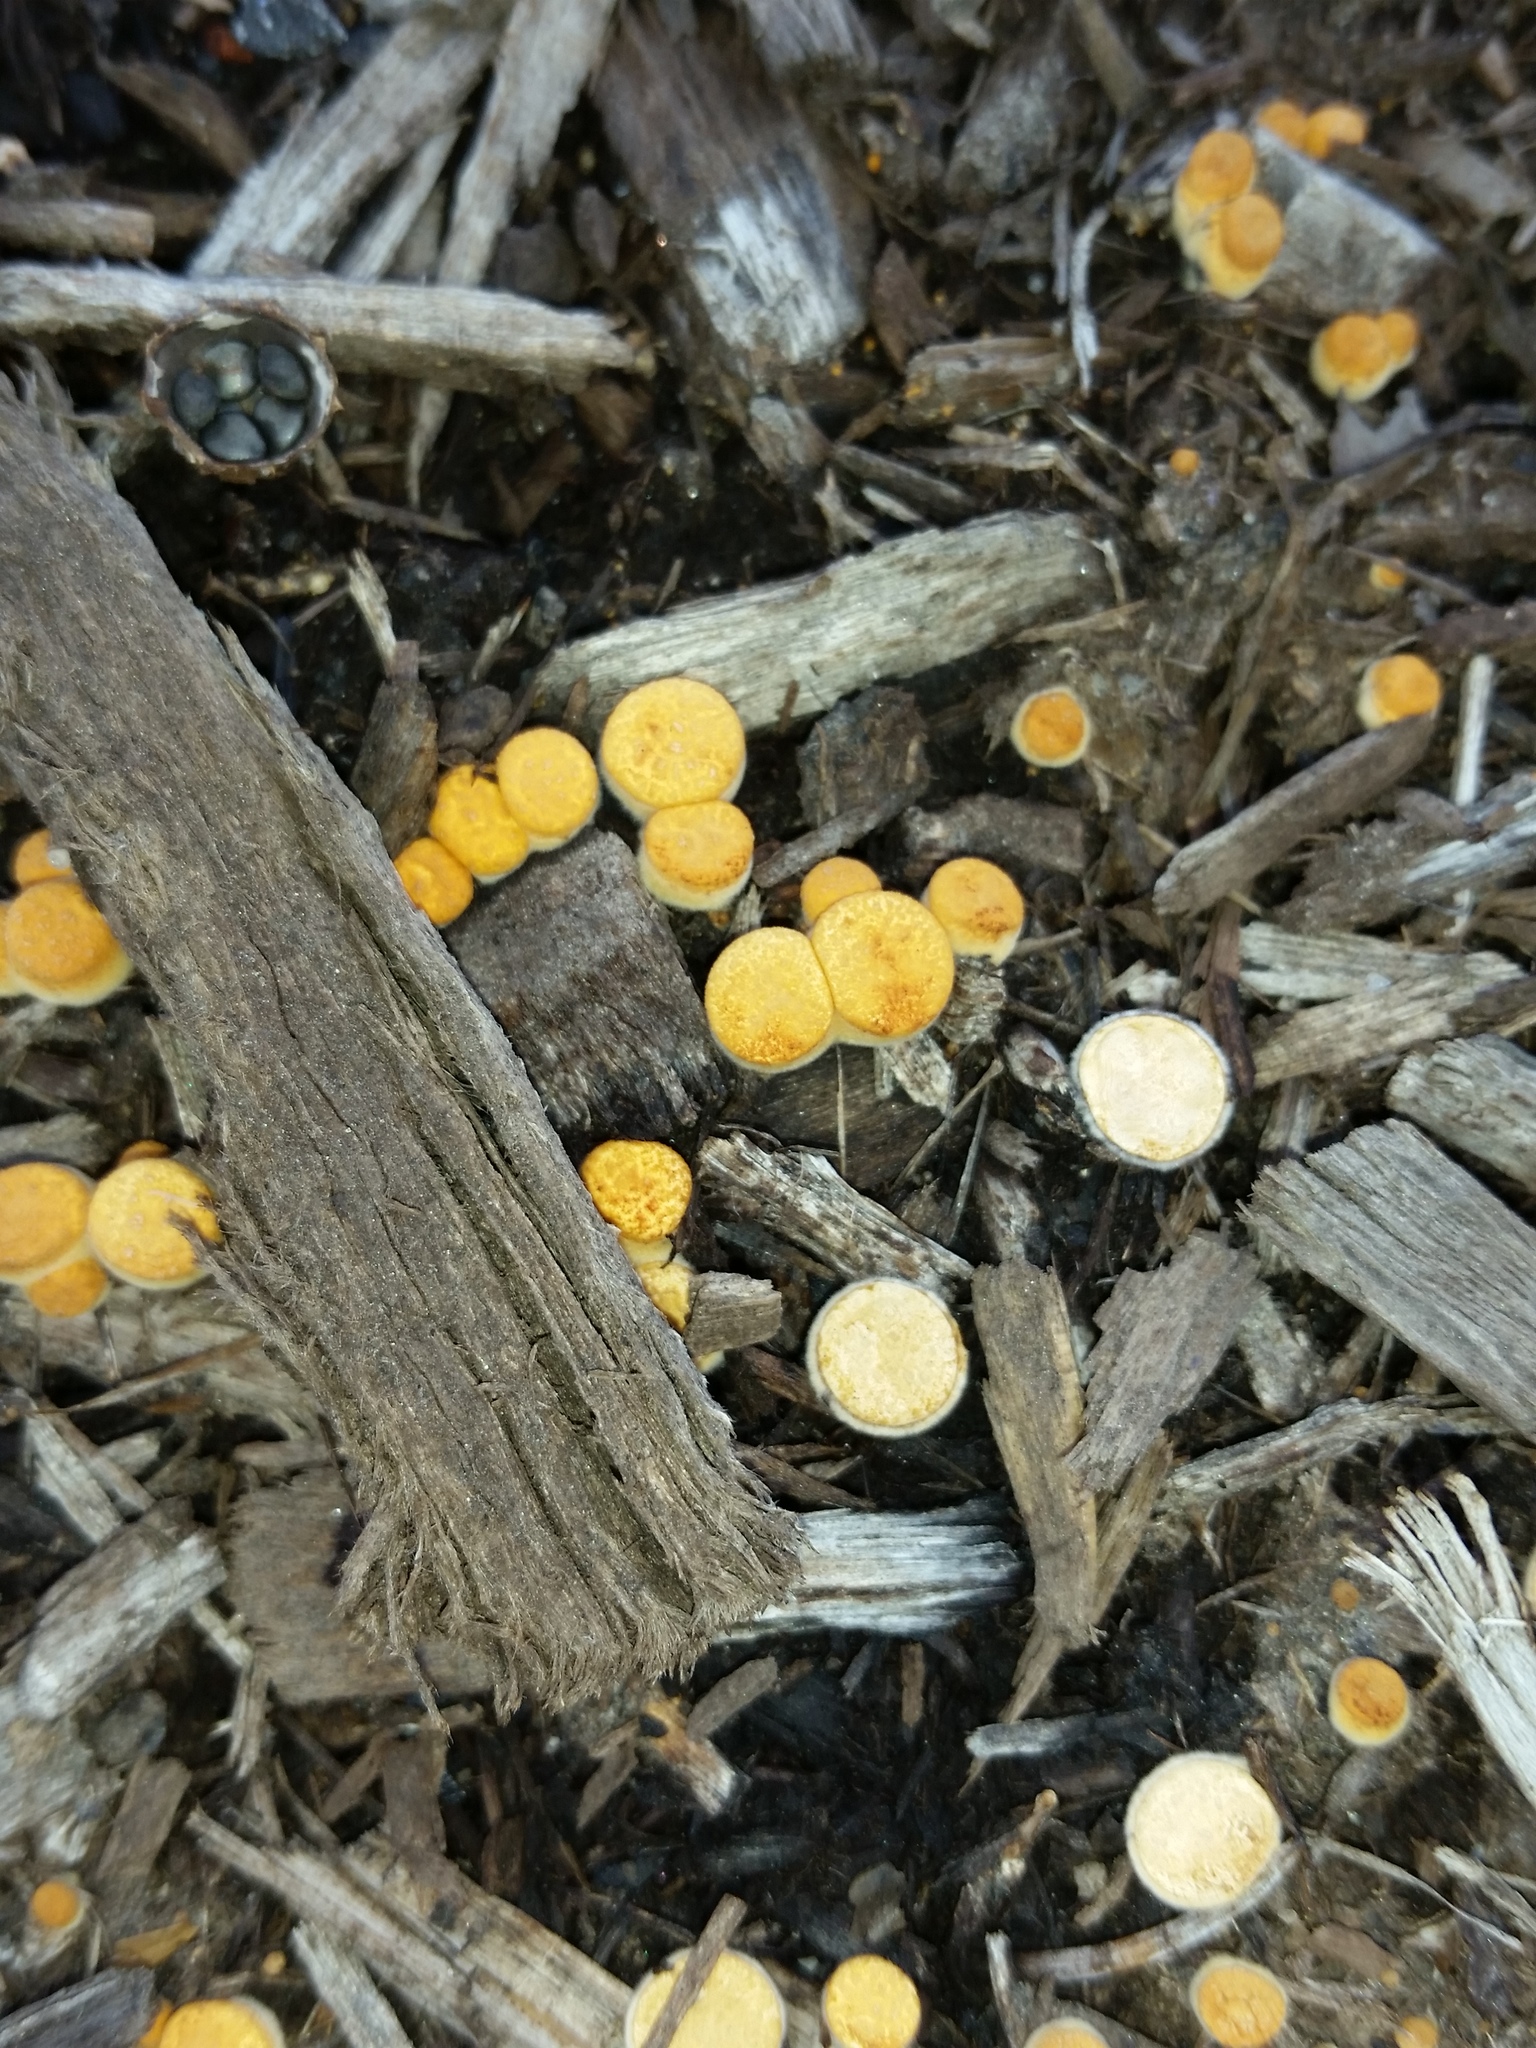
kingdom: Fungi
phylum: Basidiomycota
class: Agaricomycetes
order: Agaricales
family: Nidulariaceae
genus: Crucibulum
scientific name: Crucibulum laeve
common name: Common bird's nest
